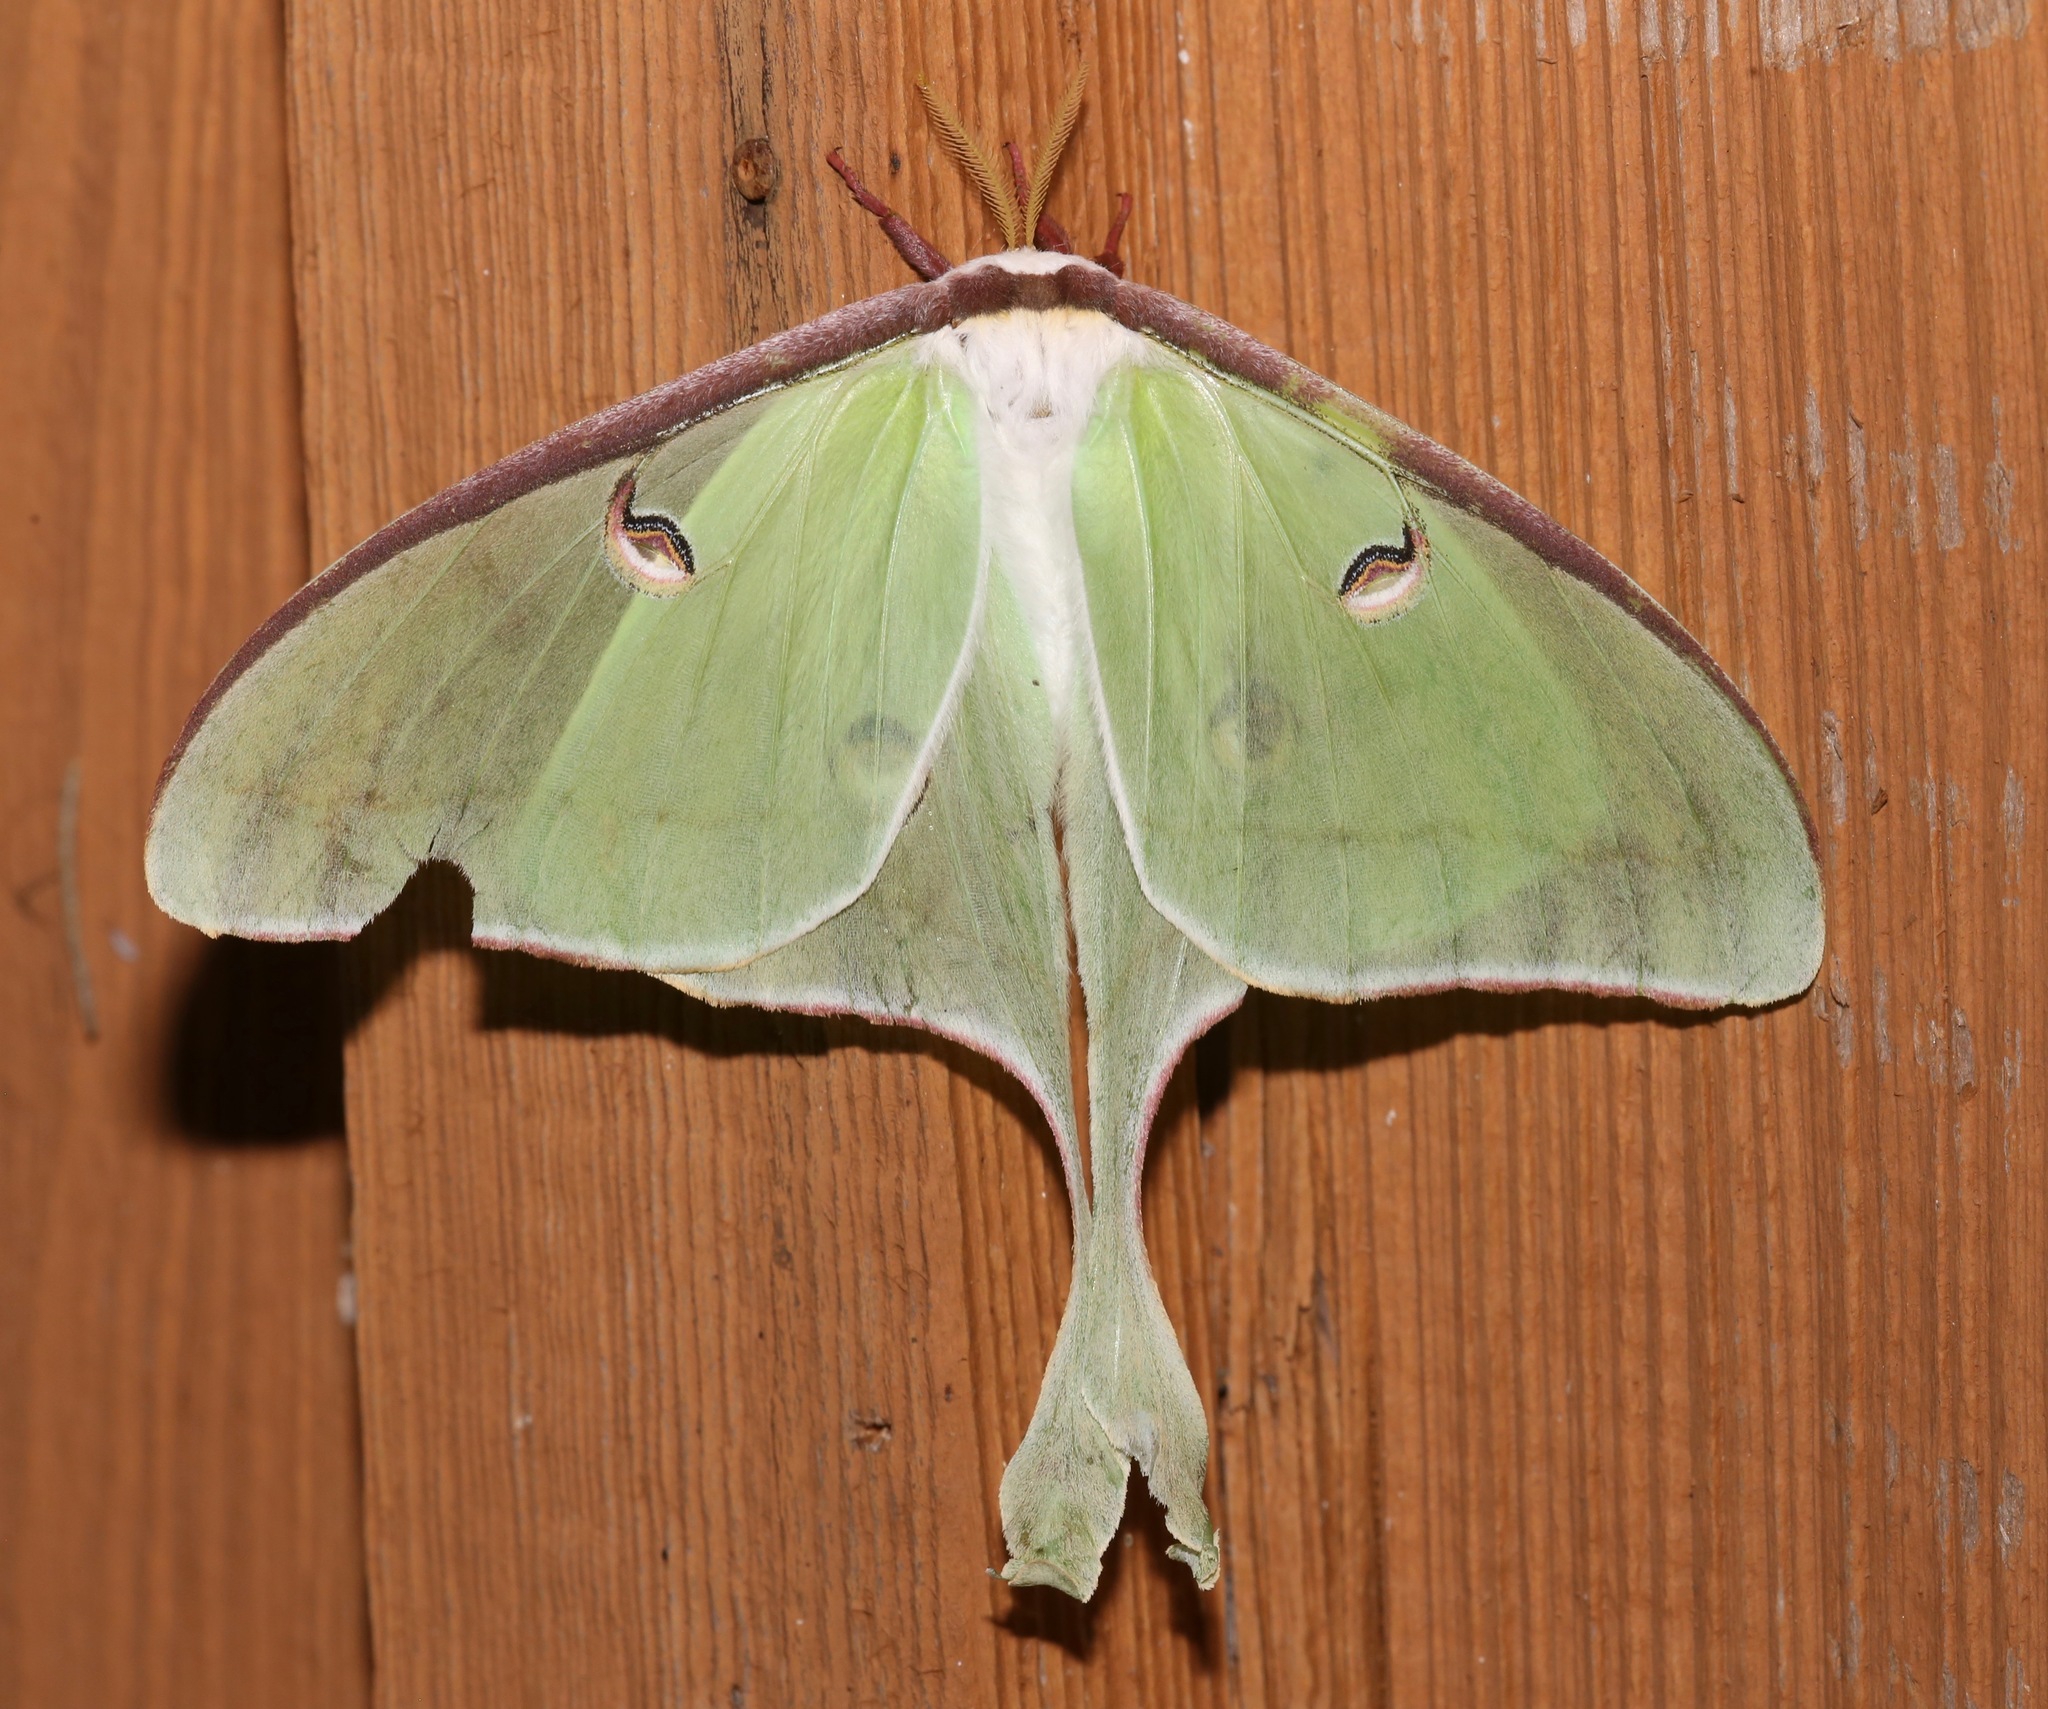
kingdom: Animalia
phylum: Arthropoda
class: Insecta
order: Lepidoptera
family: Saturniidae
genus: Actias
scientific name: Actias luna
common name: Luna moth
